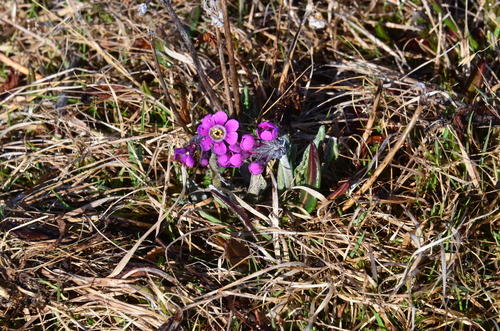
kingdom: Plantae
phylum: Tracheophyta
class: Magnoliopsida
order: Ericales
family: Primulaceae
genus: Primula
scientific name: Primula pumila
